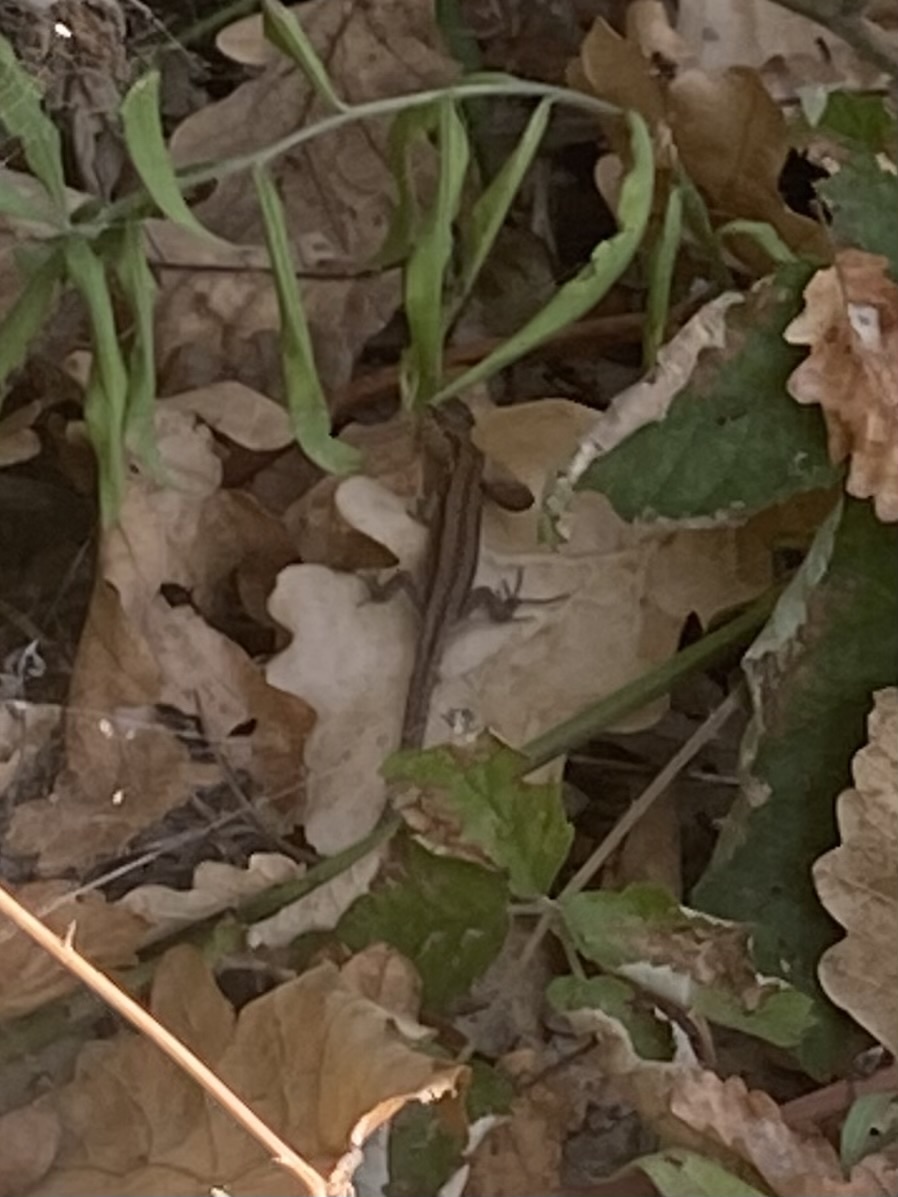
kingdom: Animalia
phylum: Chordata
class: Squamata
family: Lacertidae
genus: Darevskia
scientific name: Darevskia praticola
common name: Meadow lizard
